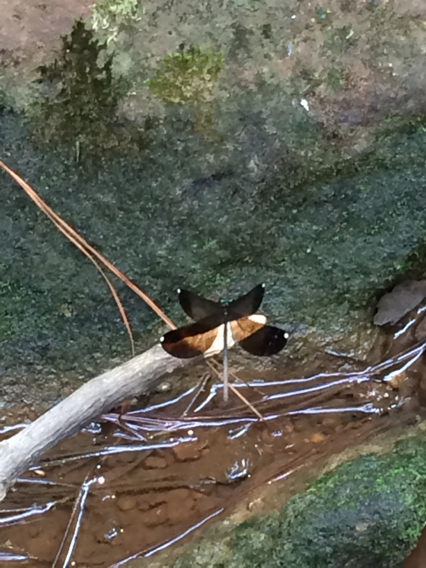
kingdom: Animalia
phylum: Arthropoda
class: Insecta
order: Odonata
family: Calopterygidae
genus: Calopteryx
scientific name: Calopteryx maculata
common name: Ebony jewelwing
